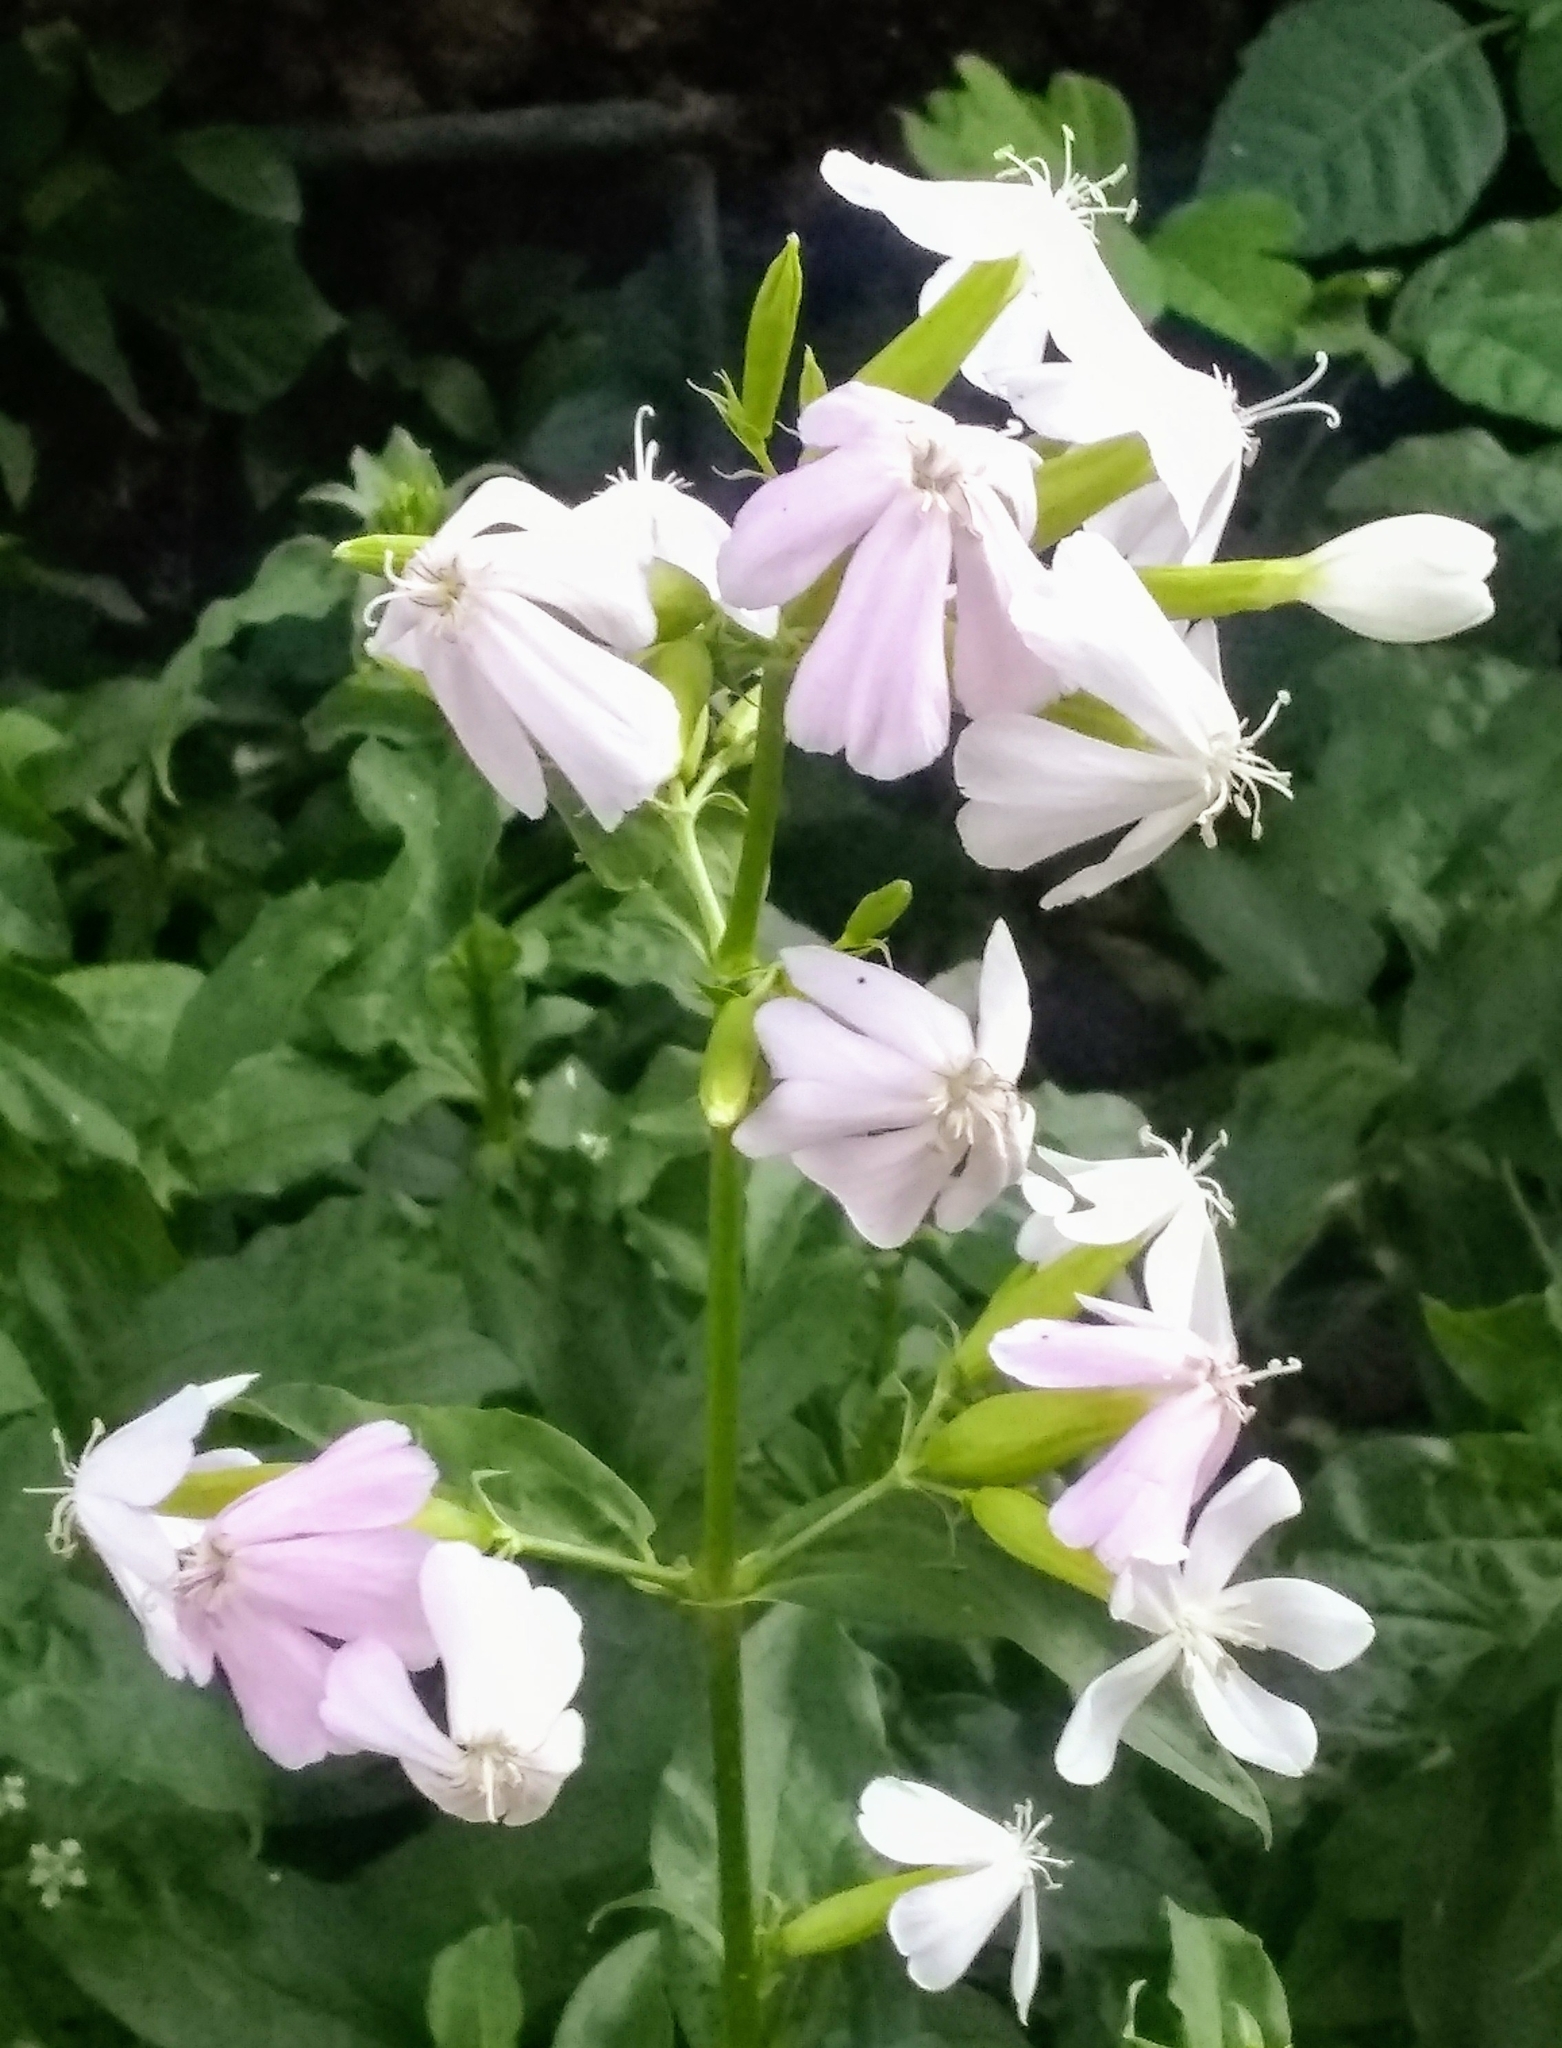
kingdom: Plantae
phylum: Tracheophyta
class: Magnoliopsida
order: Caryophyllales
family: Caryophyllaceae
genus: Saponaria
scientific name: Saponaria officinalis
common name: Soapwort
